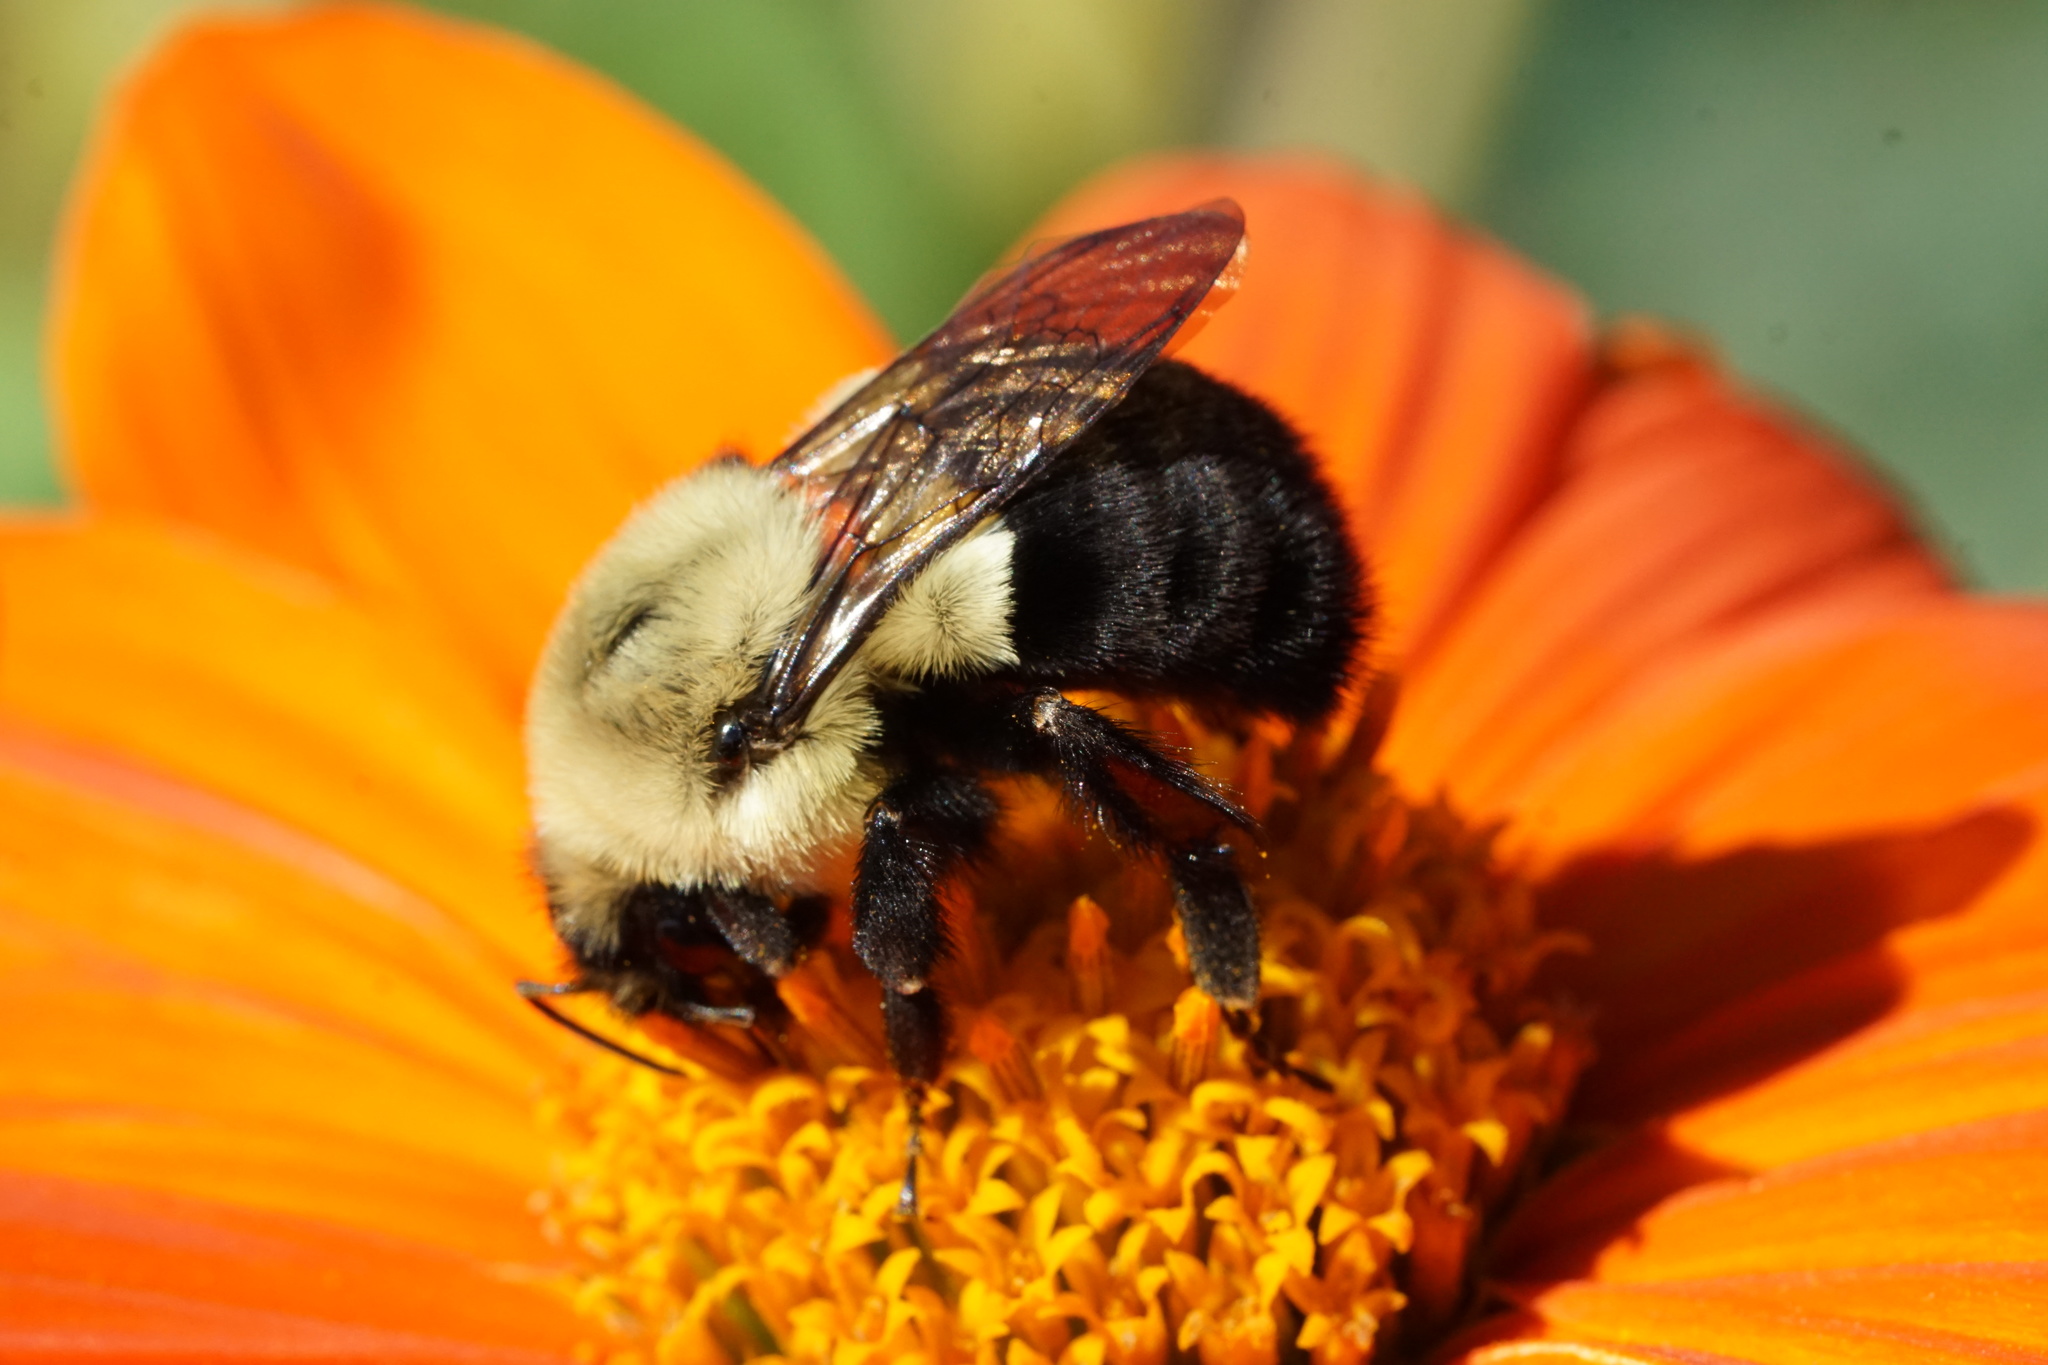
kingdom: Animalia
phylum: Arthropoda
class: Insecta
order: Hymenoptera
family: Apidae
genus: Bombus
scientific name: Bombus impatiens
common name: Common eastern bumble bee
